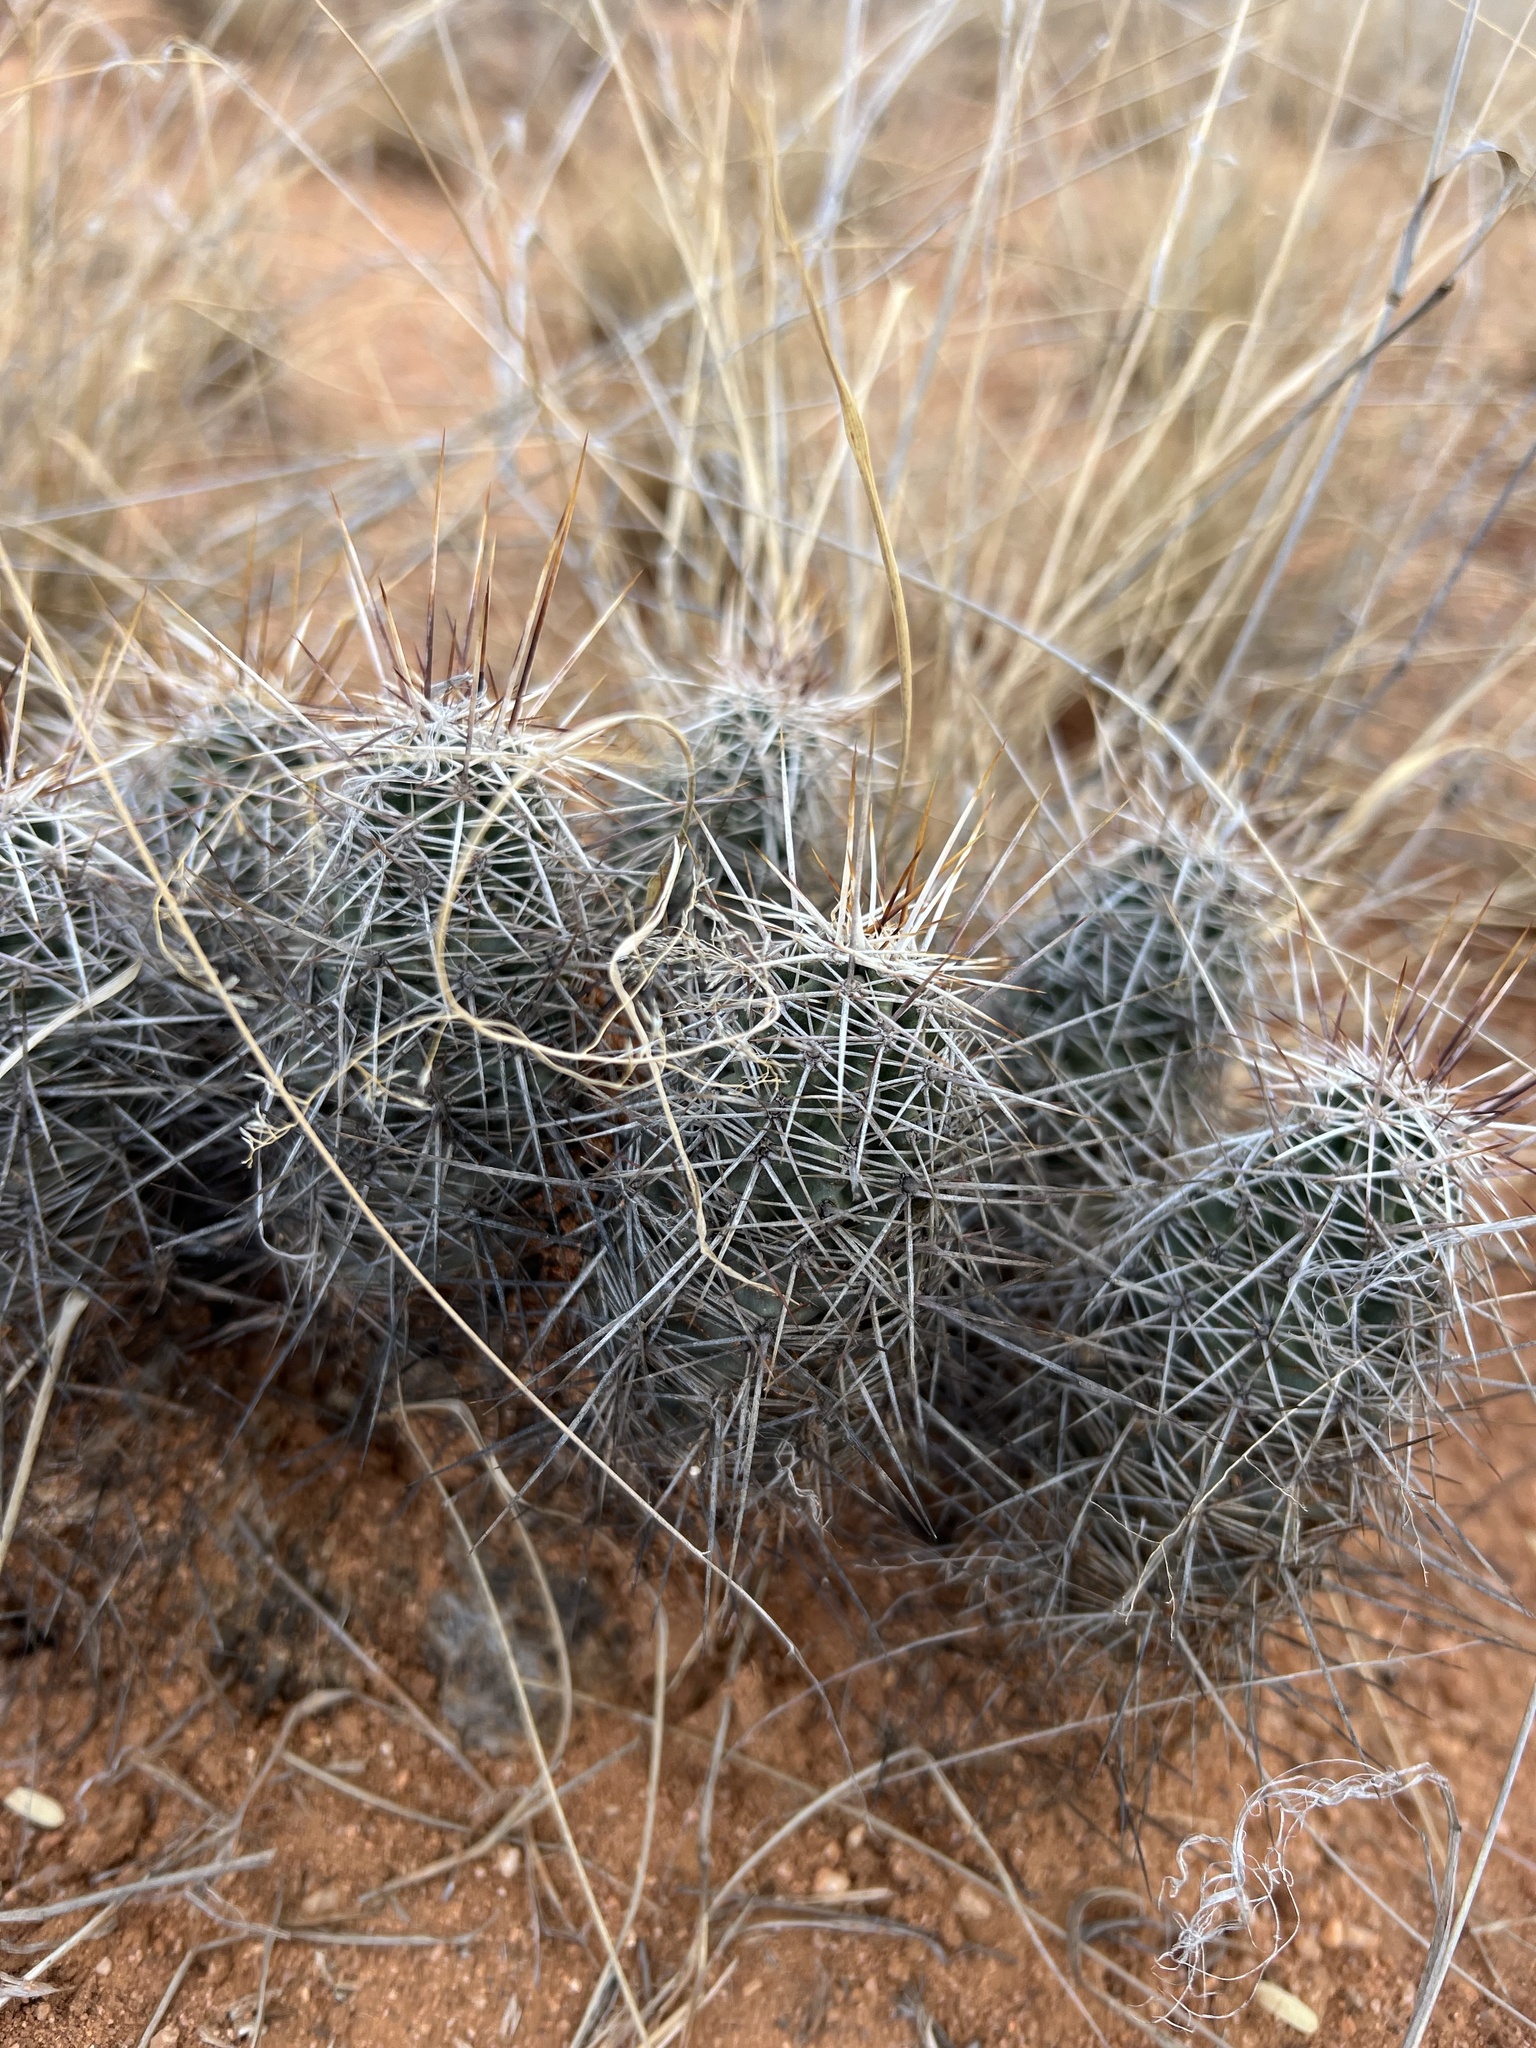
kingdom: Plantae
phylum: Tracheophyta
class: Magnoliopsida
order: Caryophyllales
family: Cactaceae
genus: Echinocereus
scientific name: Echinocereus fasciculatus
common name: Bundle hedgehog
